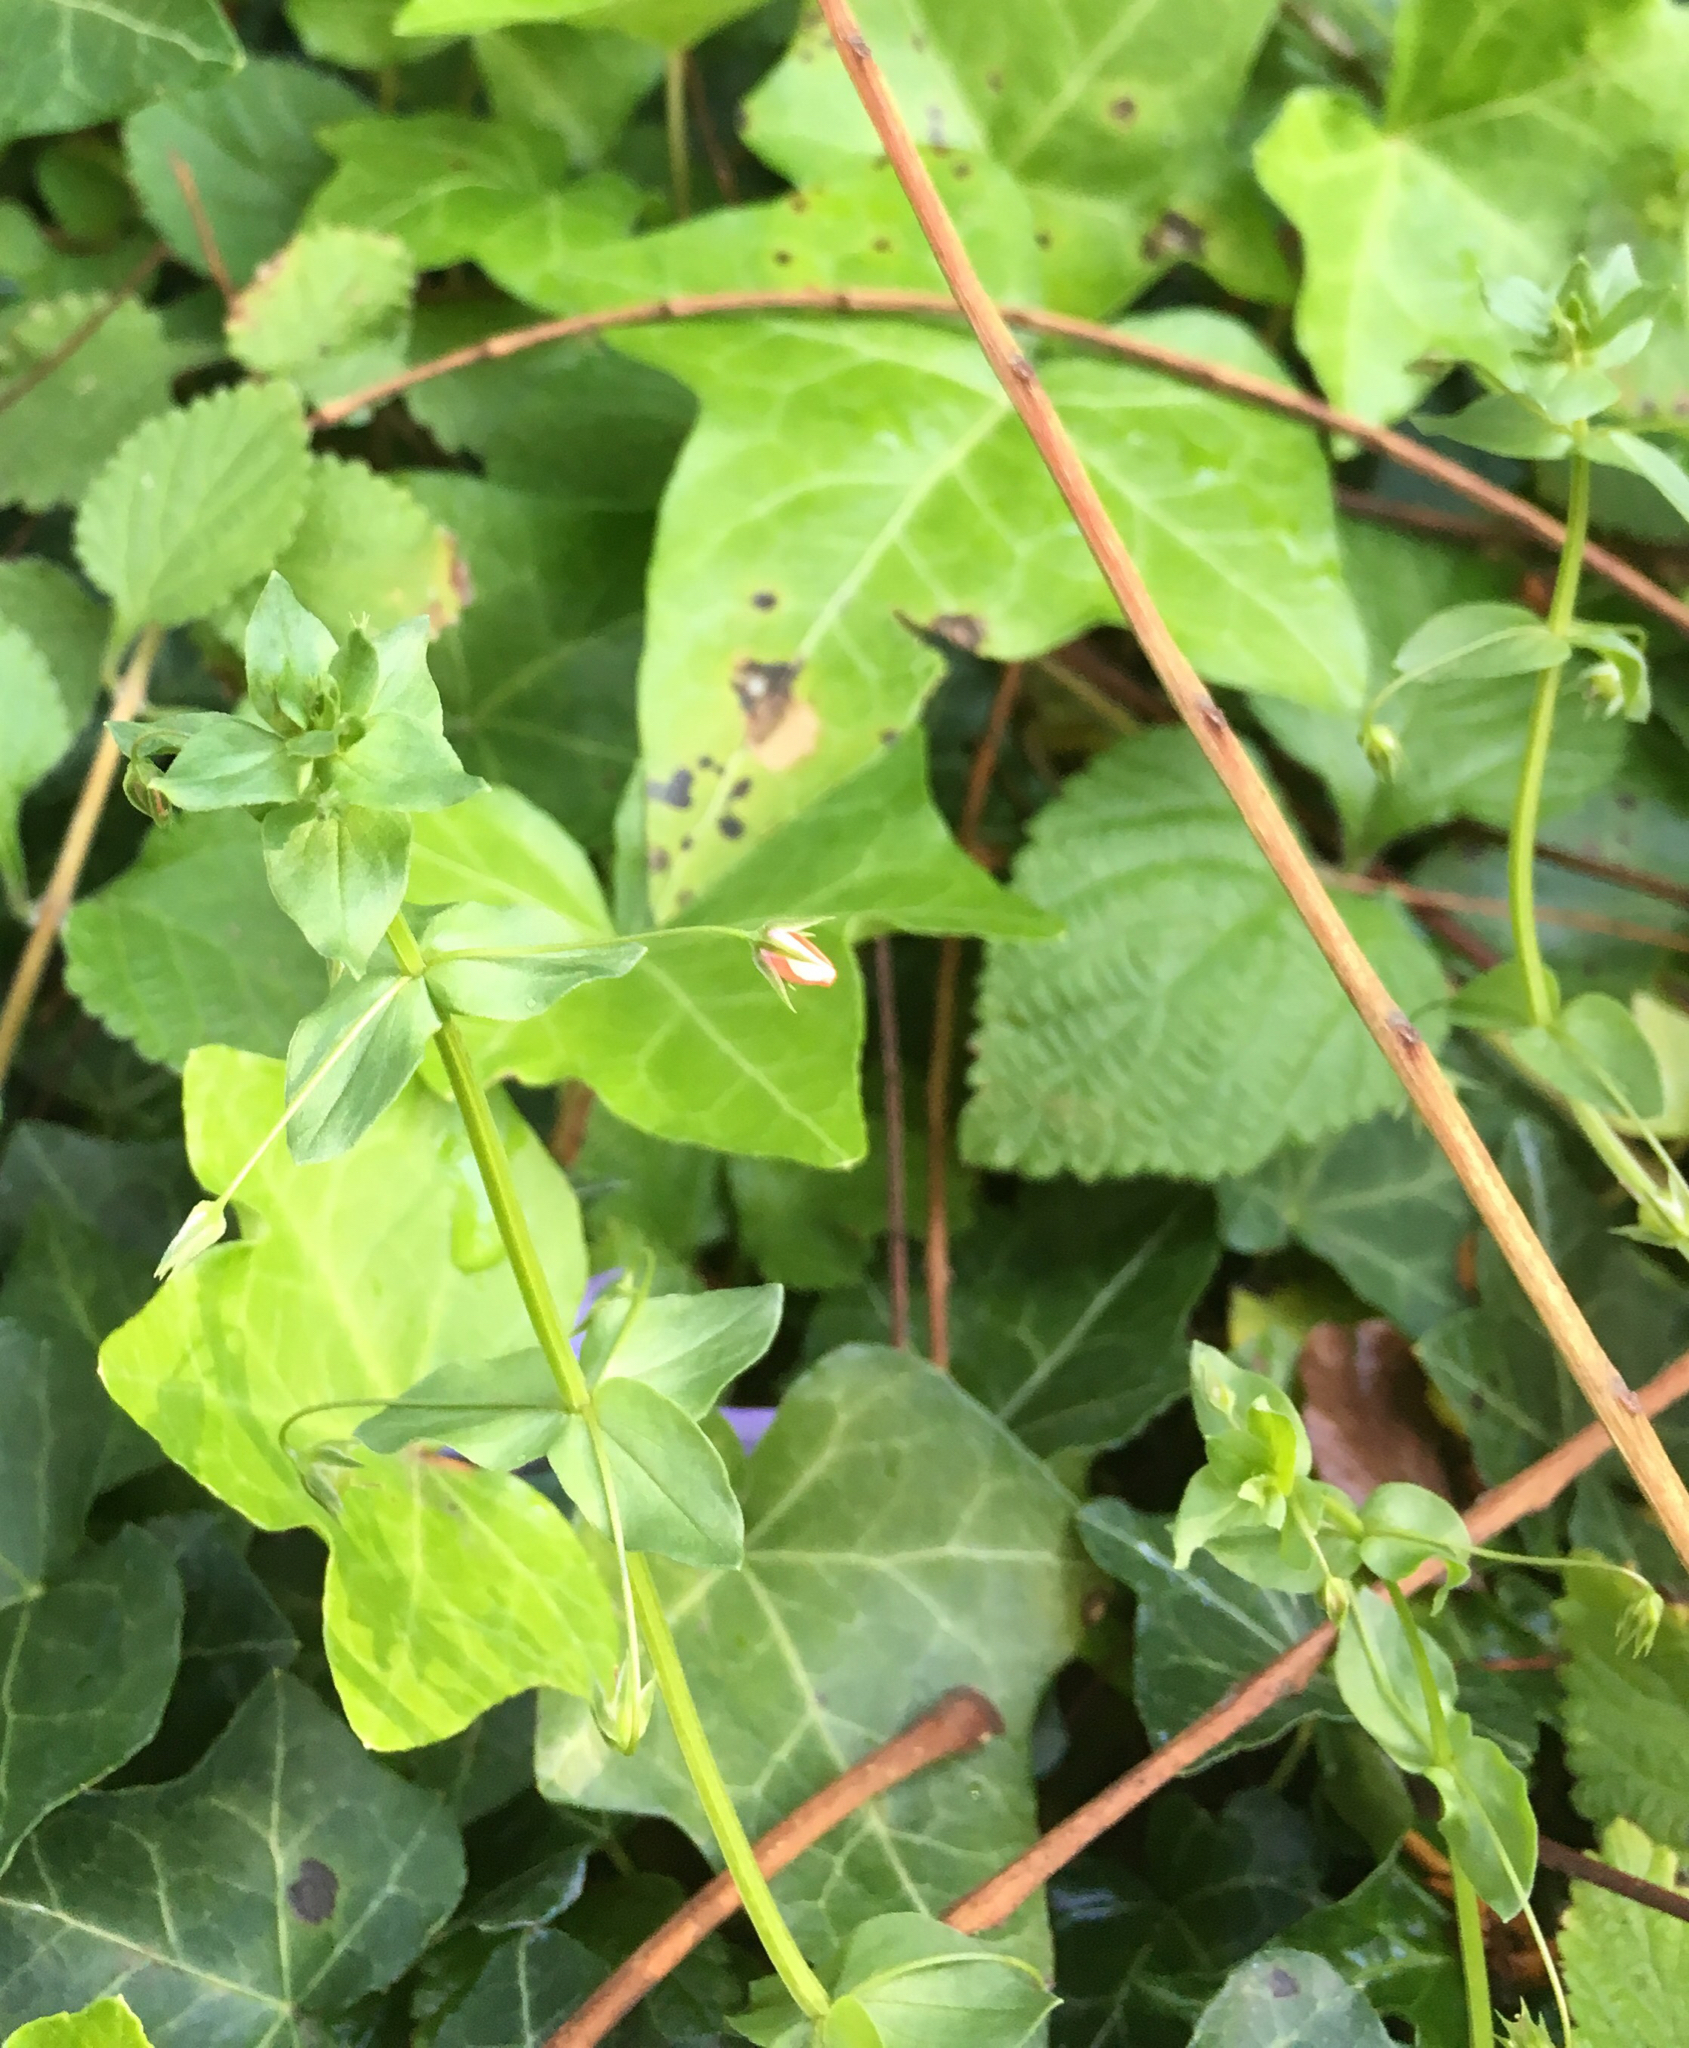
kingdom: Plantae
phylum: Tracheophyta
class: Magnoliopsida
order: Ericales
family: Primulaceae
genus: Lysimachia
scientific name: Lysimachia arvensis
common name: Scarlet pimpernel
